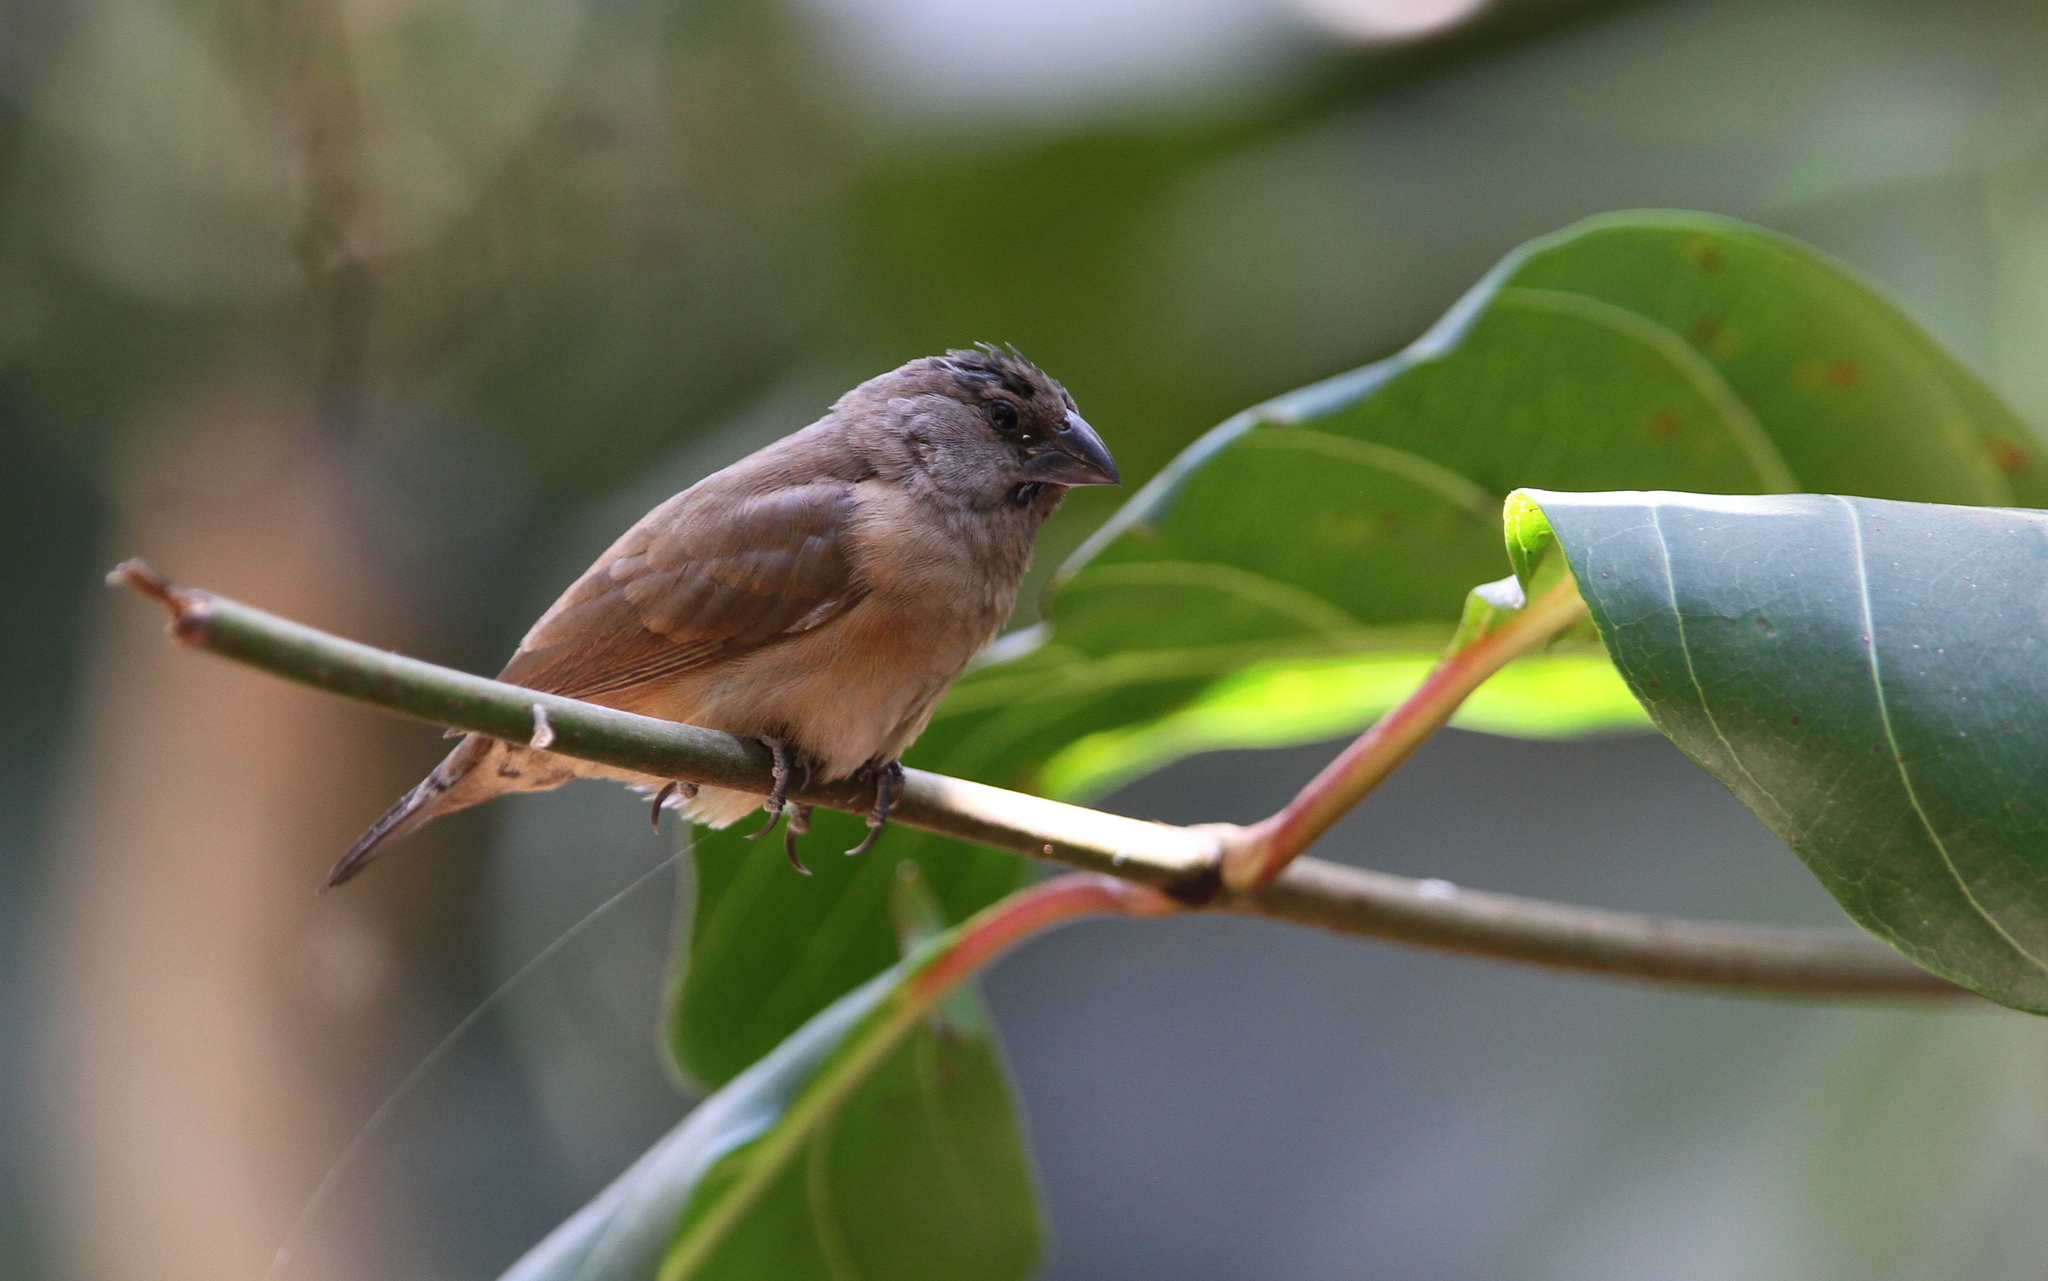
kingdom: Animalia
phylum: Chordata
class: Aves
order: Passeriformes
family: Estrildidae
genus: Lonchura
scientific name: Lonchura cucullata
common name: Bronze mannikin
